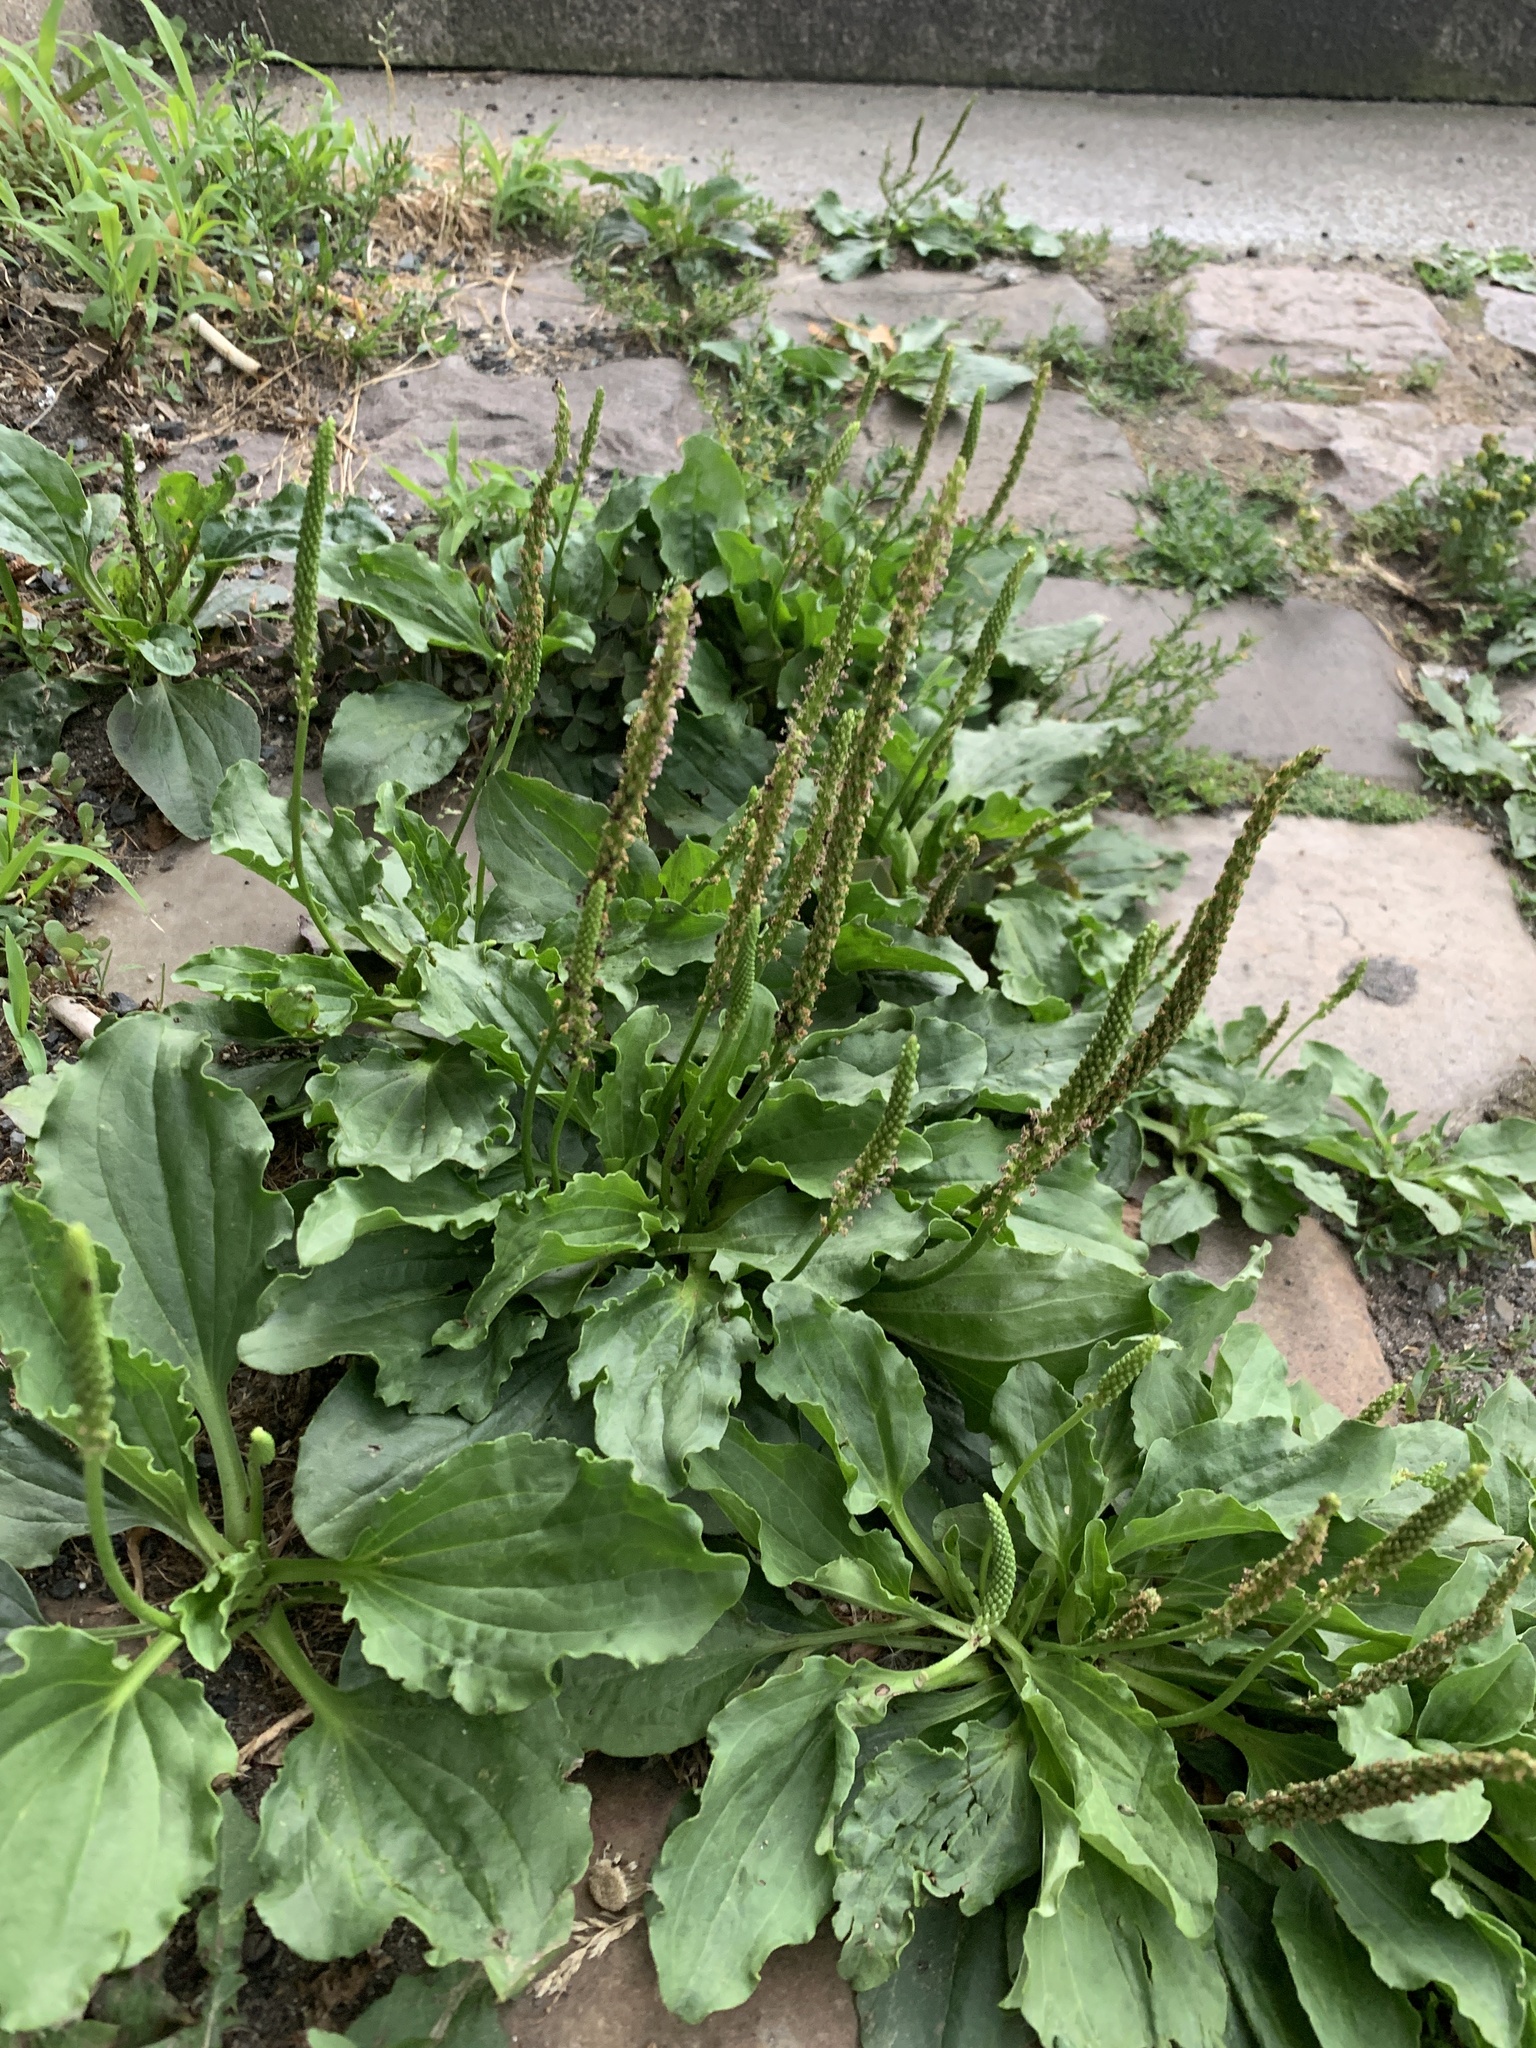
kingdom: Plantae
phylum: Tracheophyta
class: Magnoliopsida
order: Lamiales
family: Plantaginaceae
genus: Plantago
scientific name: Plantago major
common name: Common plantain
